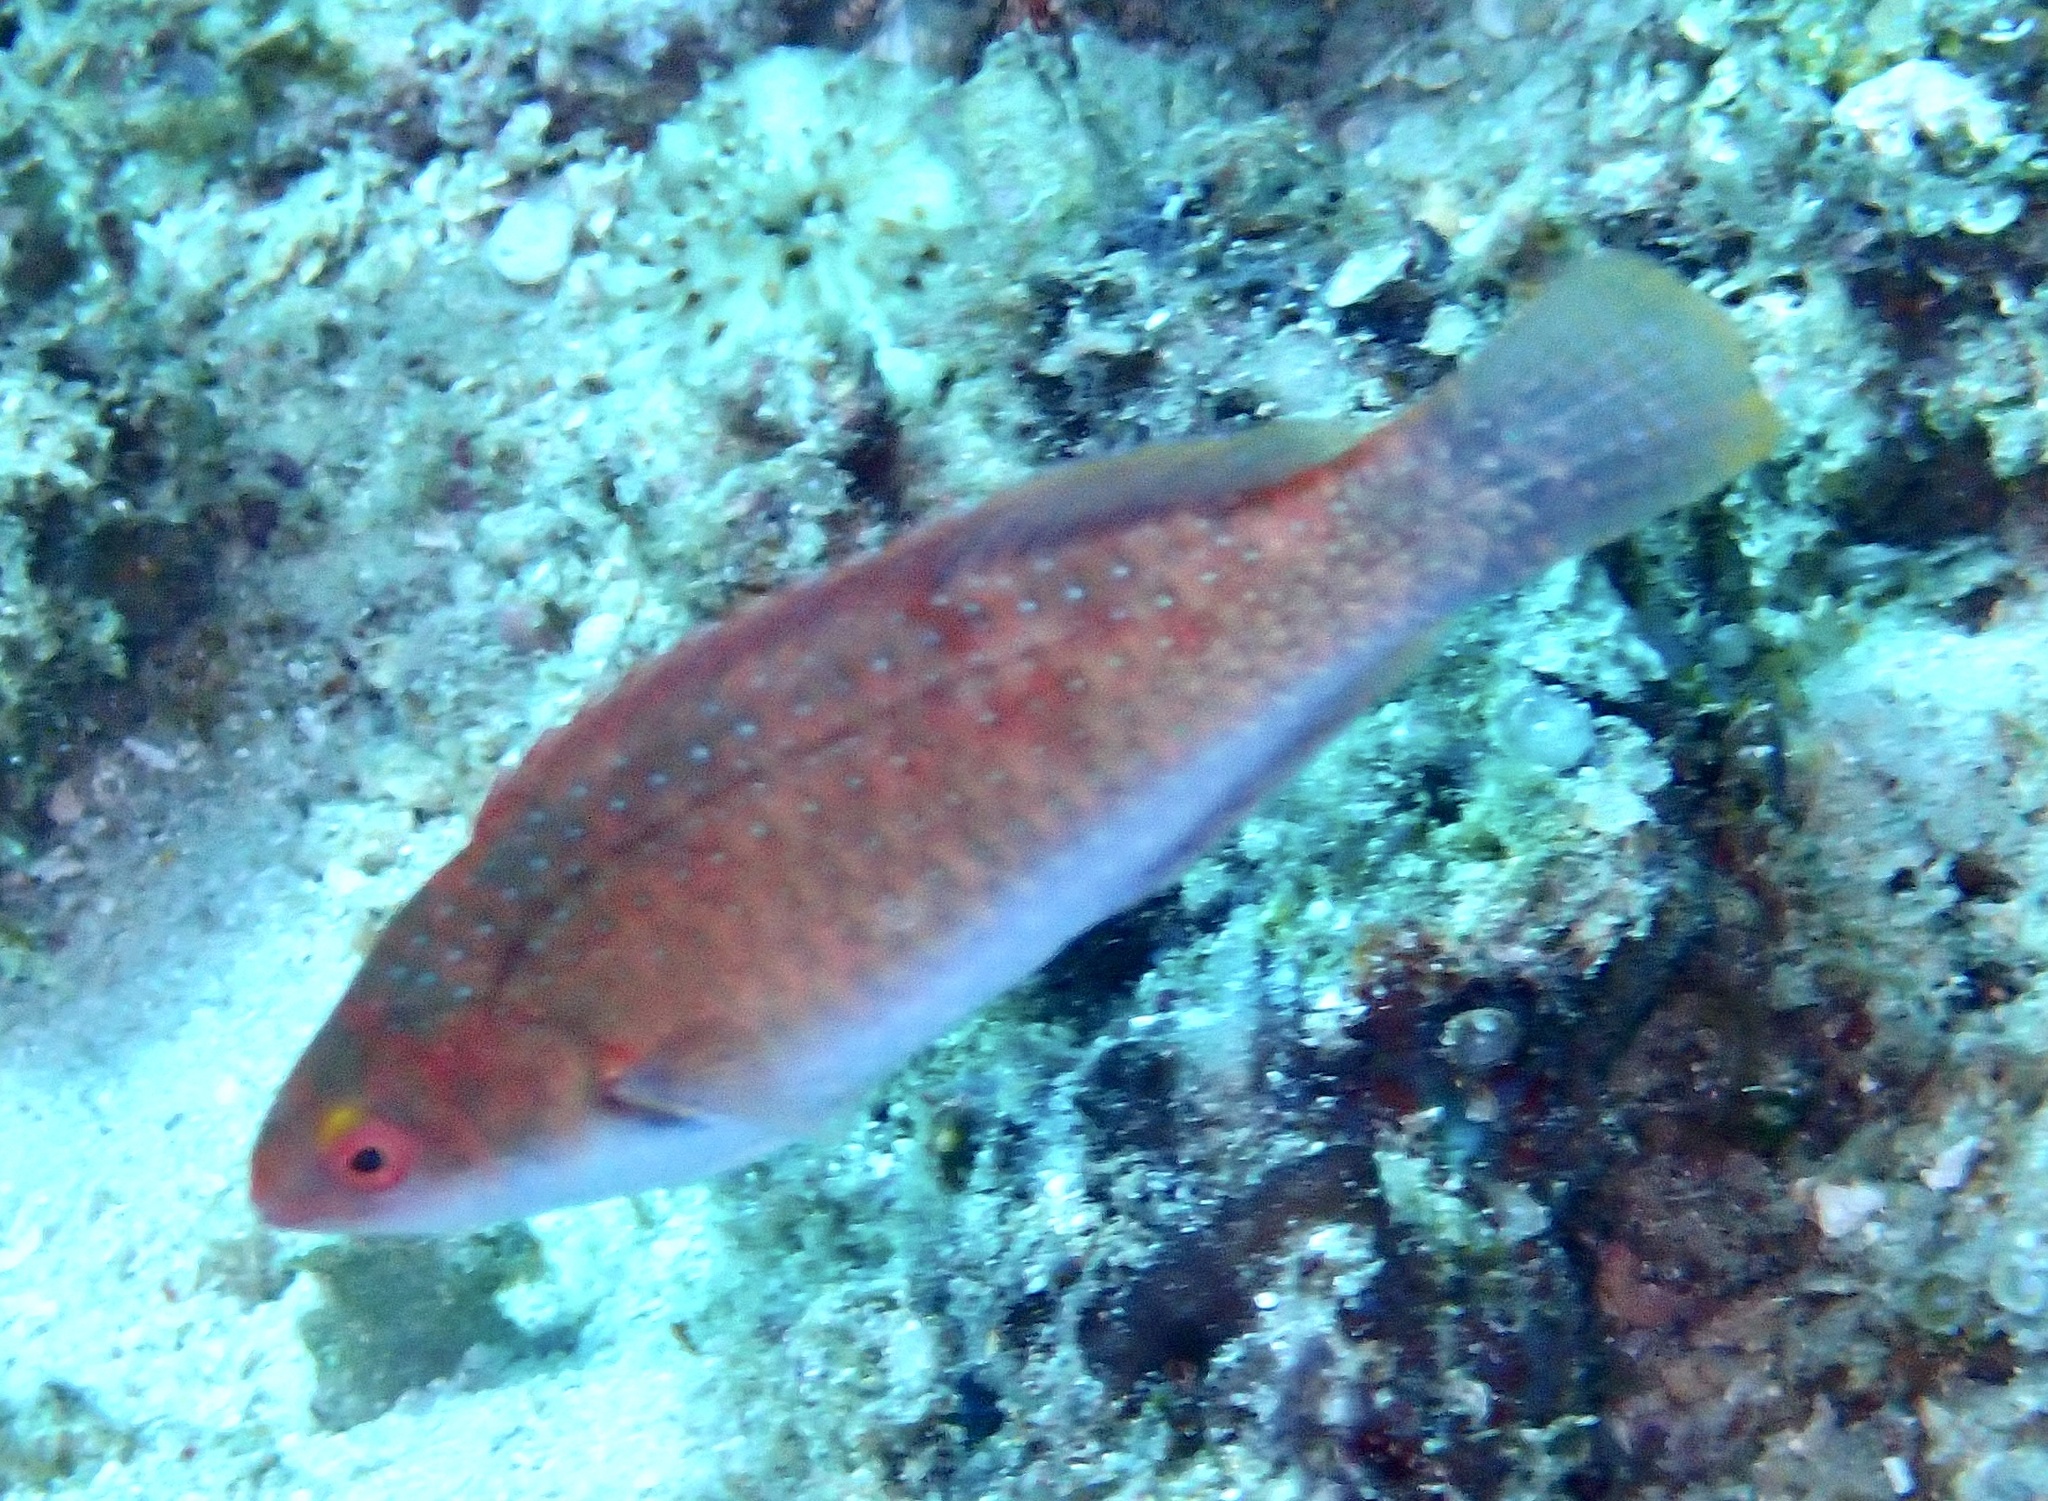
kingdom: Animalia
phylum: Chordata
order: Perciformes
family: Labridae
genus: Cirrhilabrus
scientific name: Cirrhilabrus cyanopleura
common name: Coralline wrasse
